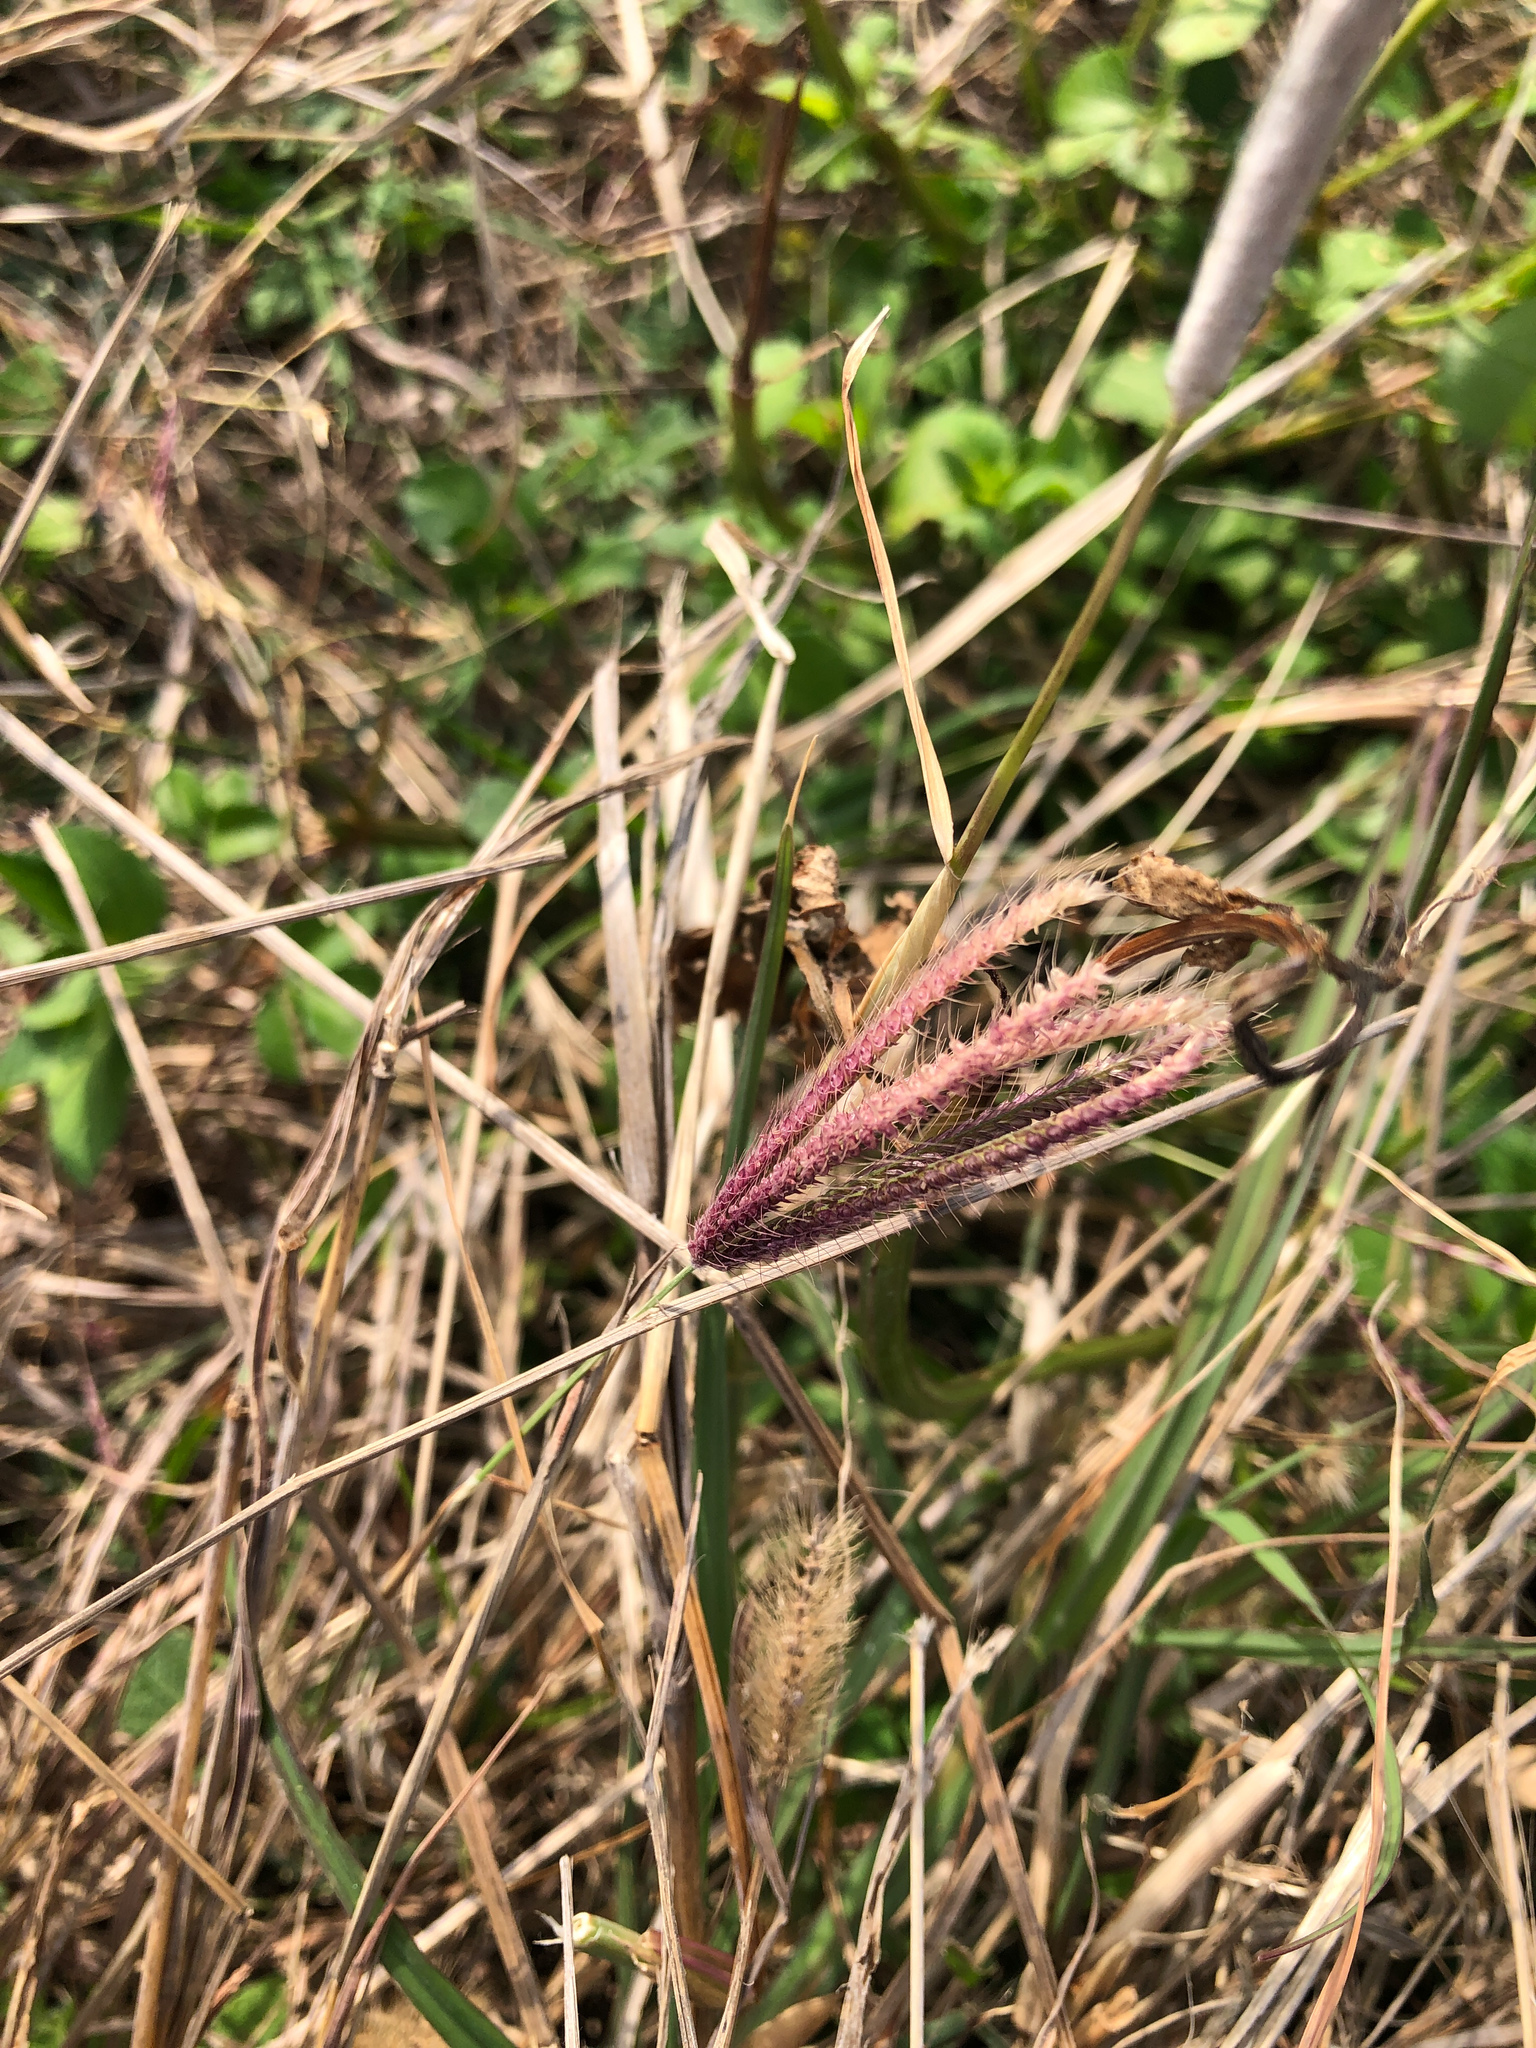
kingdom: Plantae
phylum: Tracheophyta
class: Liliopsida
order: Poales
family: Poaceae
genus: Chloris
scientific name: Chloris barbata
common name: Swollen fingergrass
